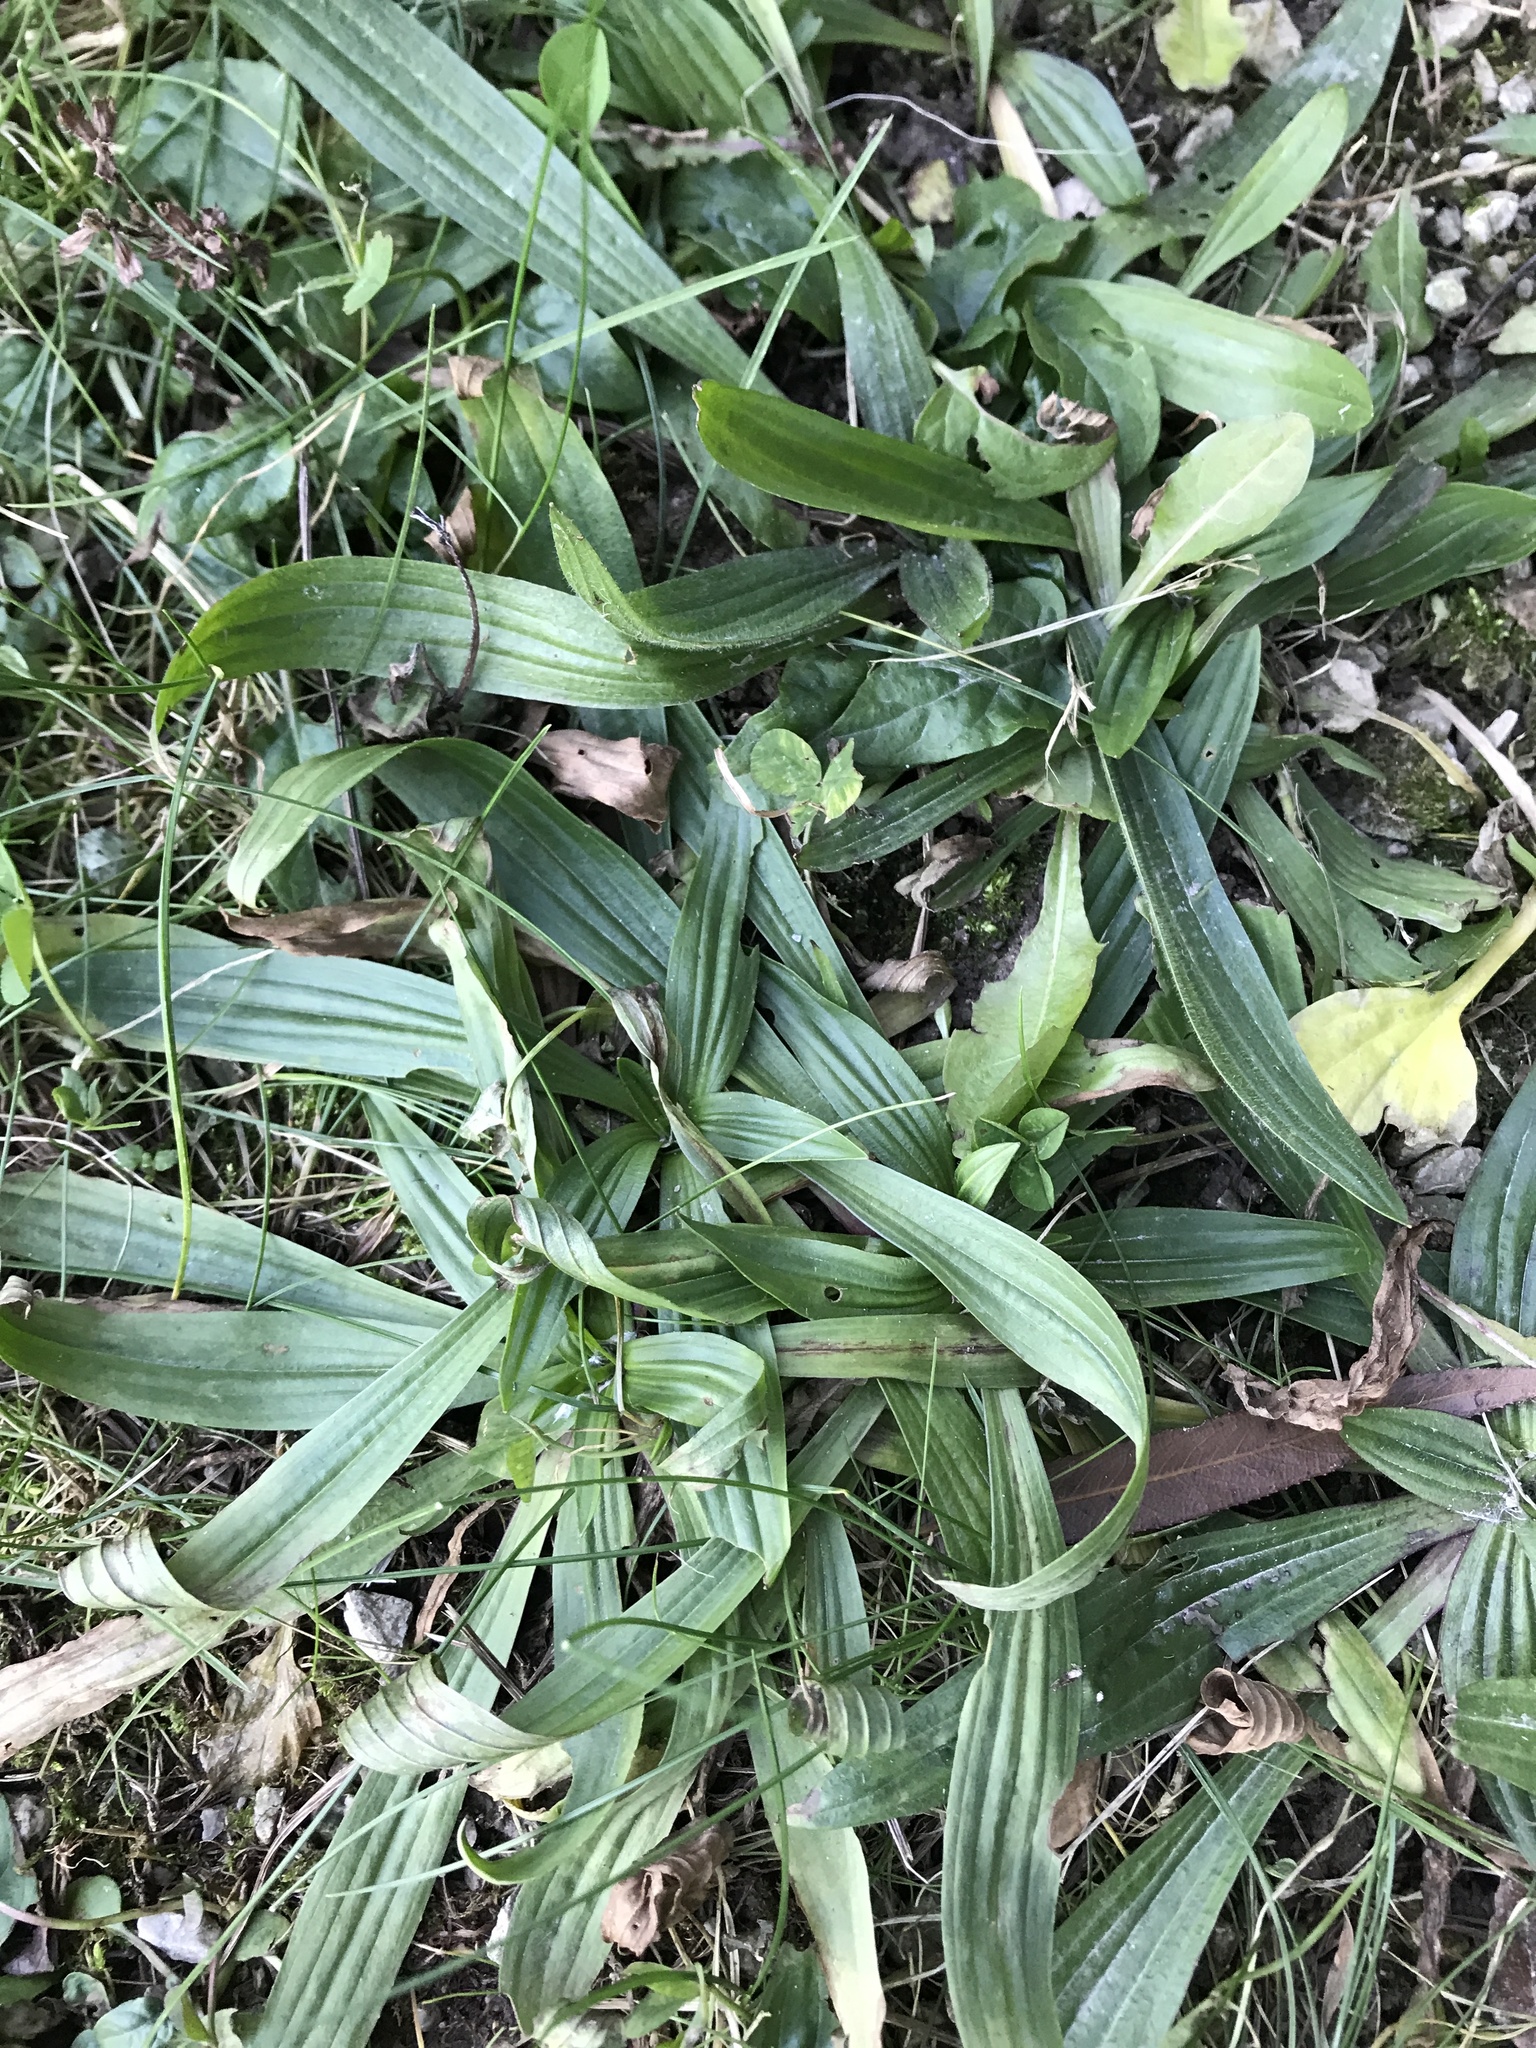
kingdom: Plantae
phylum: Tracheophyta
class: Magnoliopsida
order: Lamiales
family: Plantaginaceae
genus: Plantago
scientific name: Plantago lanceolata
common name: Ribwort plantain
